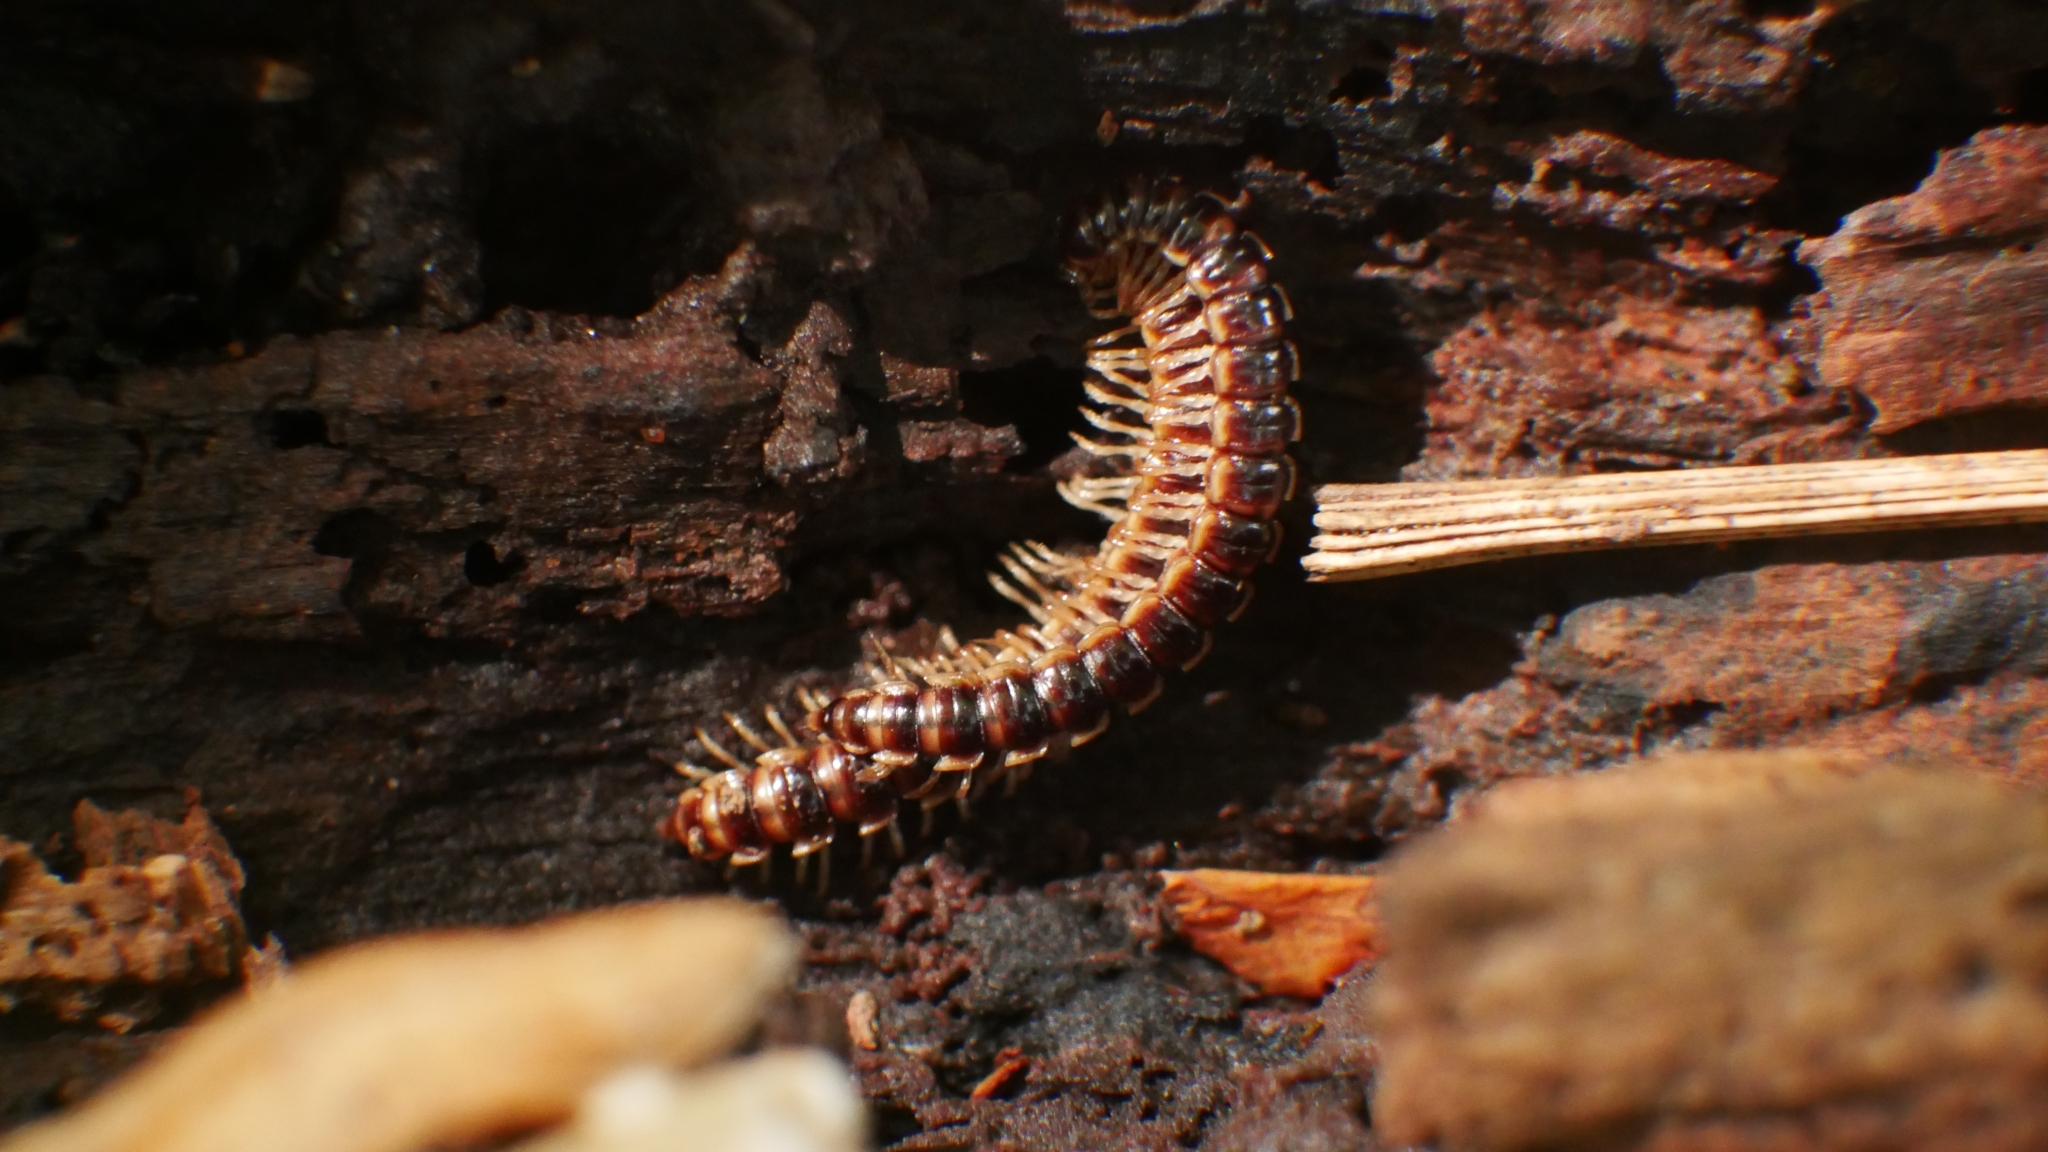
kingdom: Animalia
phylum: Arthropoda
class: Diplopoda
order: Polydesmida
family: Paradoxosomatidae
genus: Oxidus
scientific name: Oxidus gracilis
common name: Greenhouse millipede
